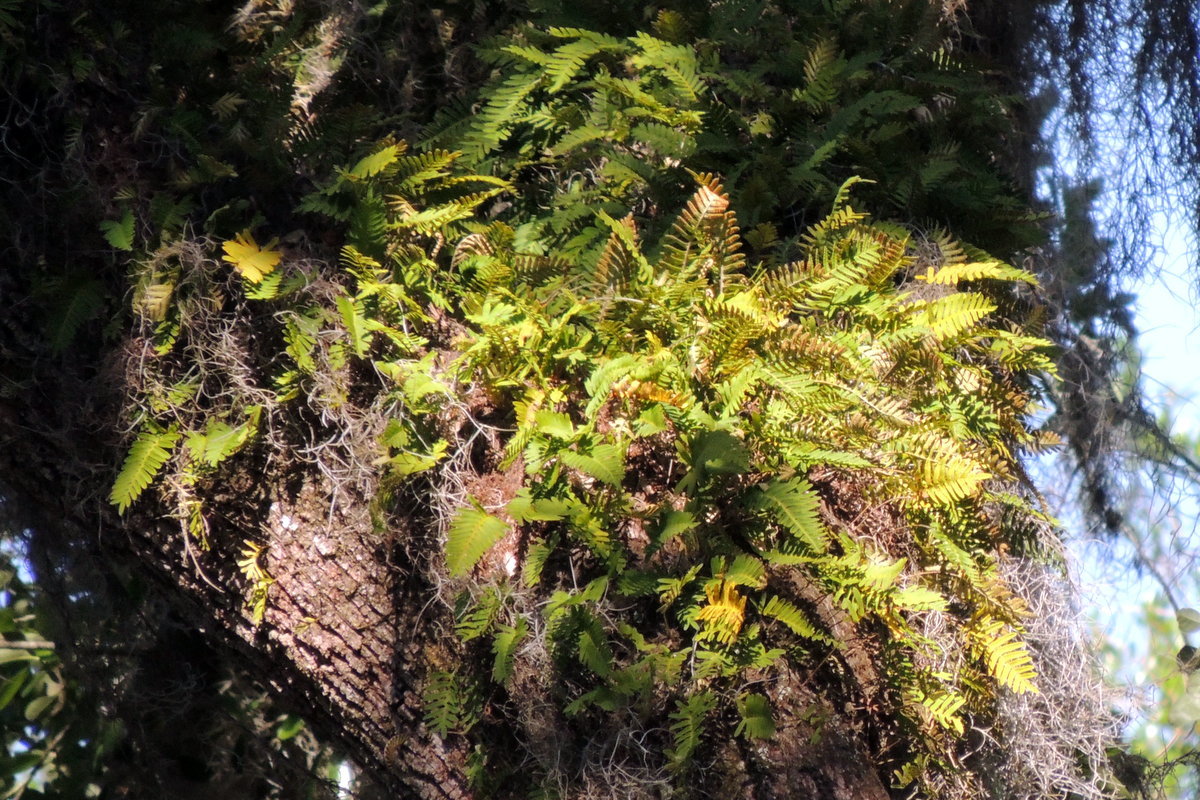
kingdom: Plantae
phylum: Tracheophyta
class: Polypodiopsida
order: Polypodiales
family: Polypodiaceae
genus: Pleopeltis
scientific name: Pleopeltis michauxiana
